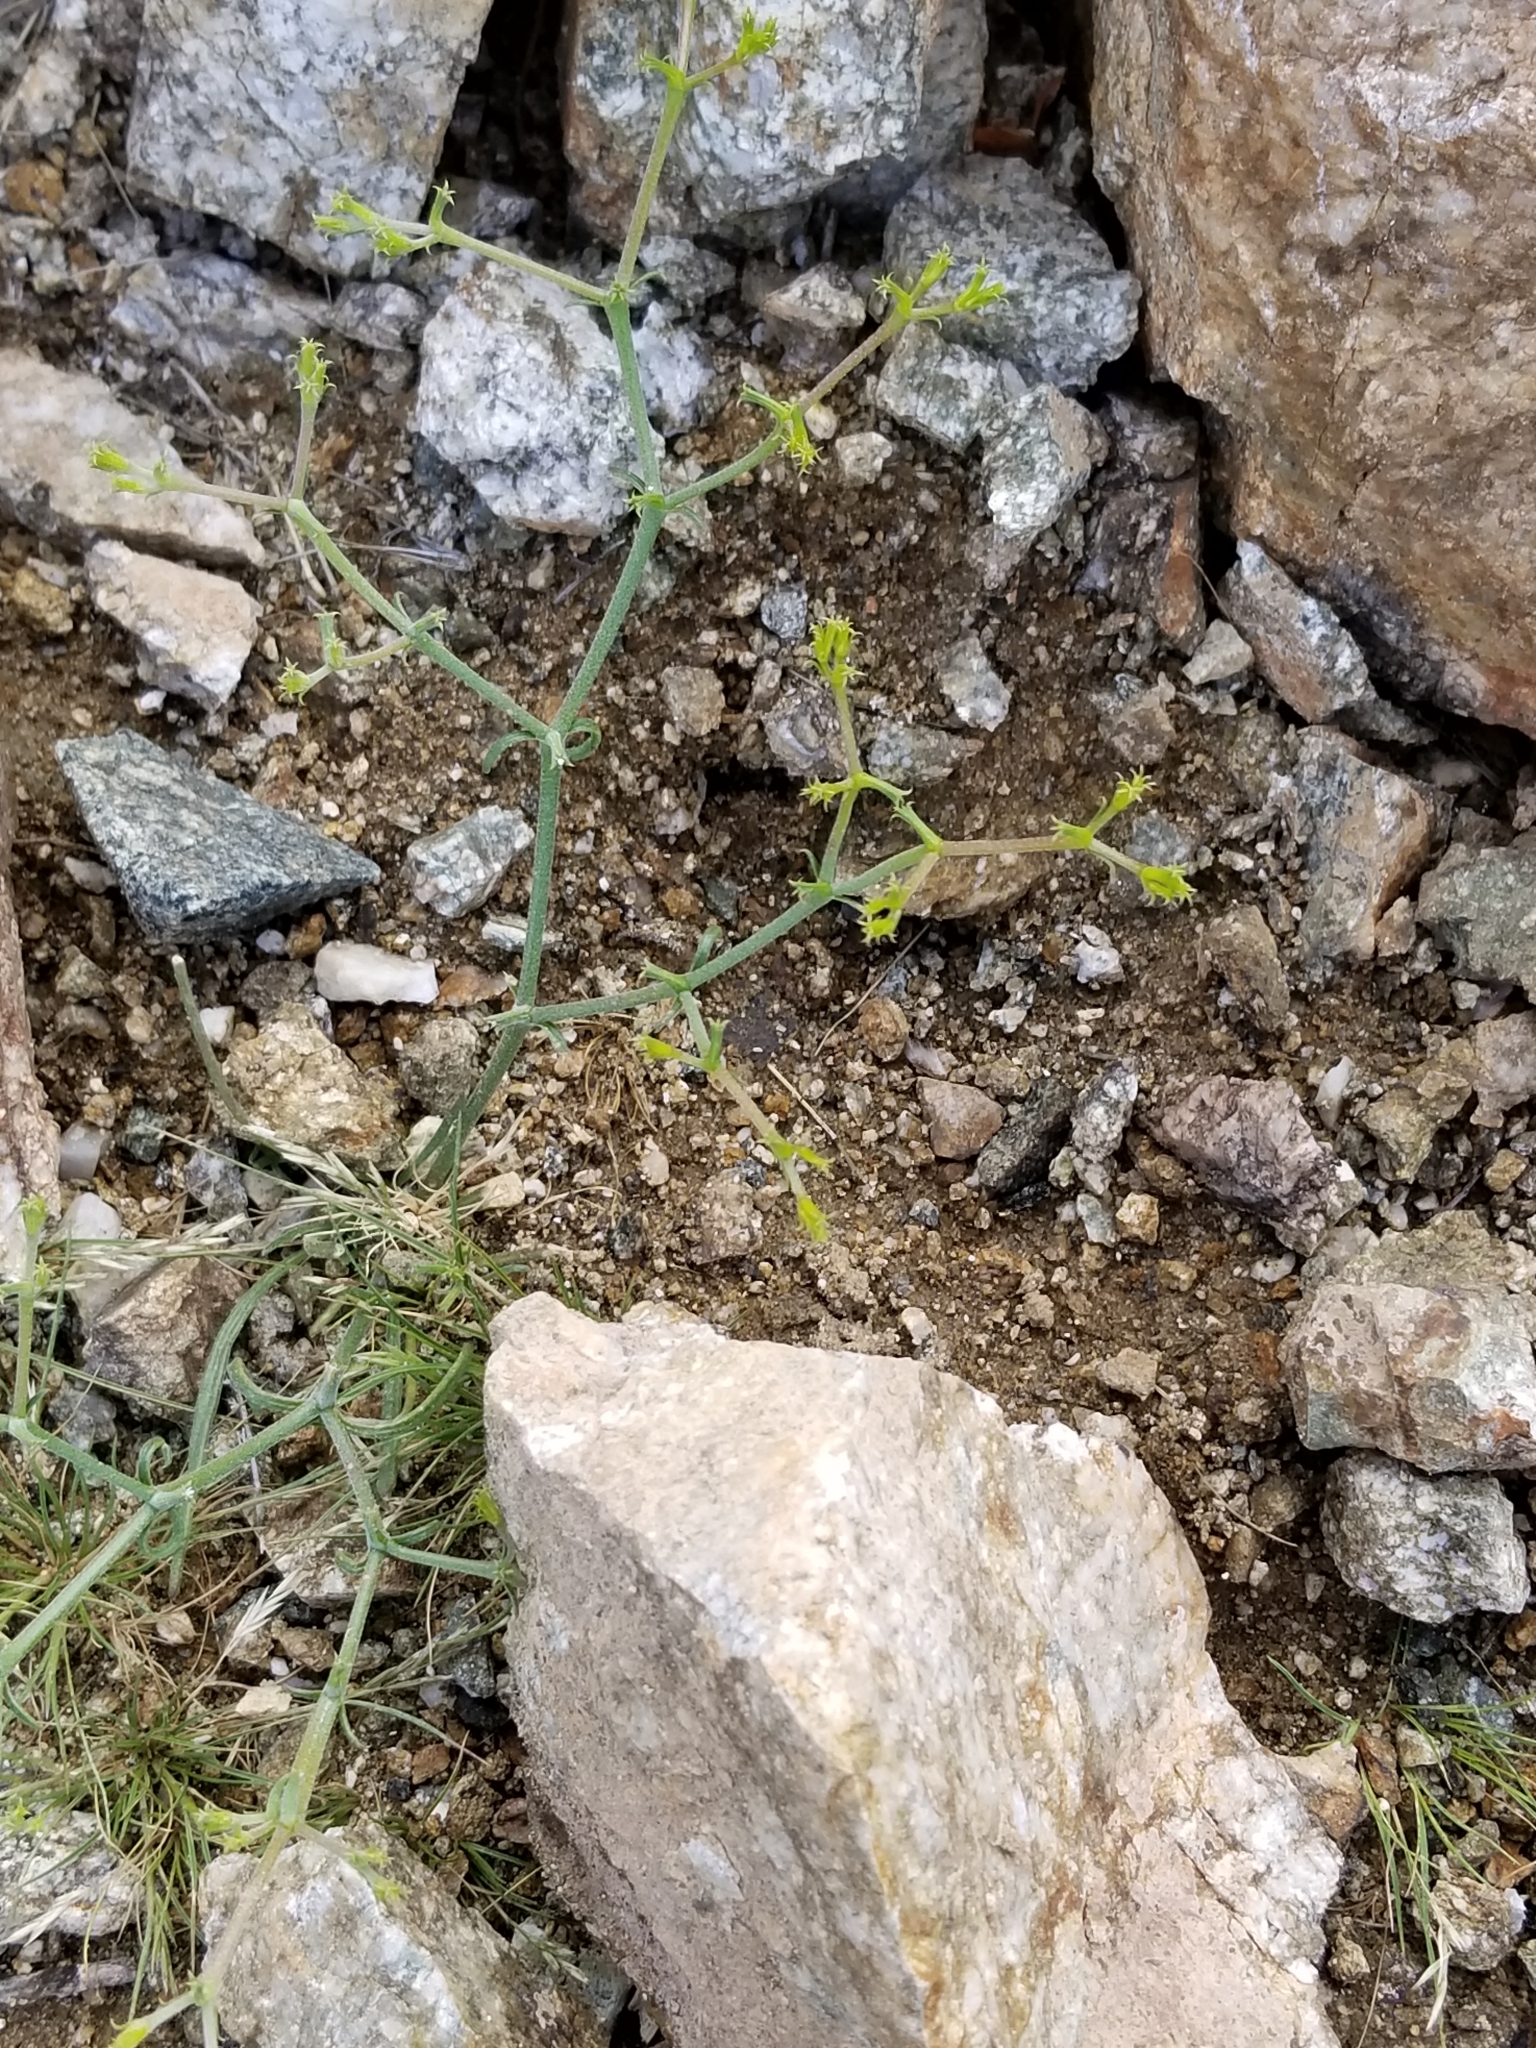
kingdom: Plantae
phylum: Tracheophyta
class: Magnoliopsida
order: Caryophyllales
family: Polygonaceae
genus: Chorizanthe
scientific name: Chorizanthe brevicornu
